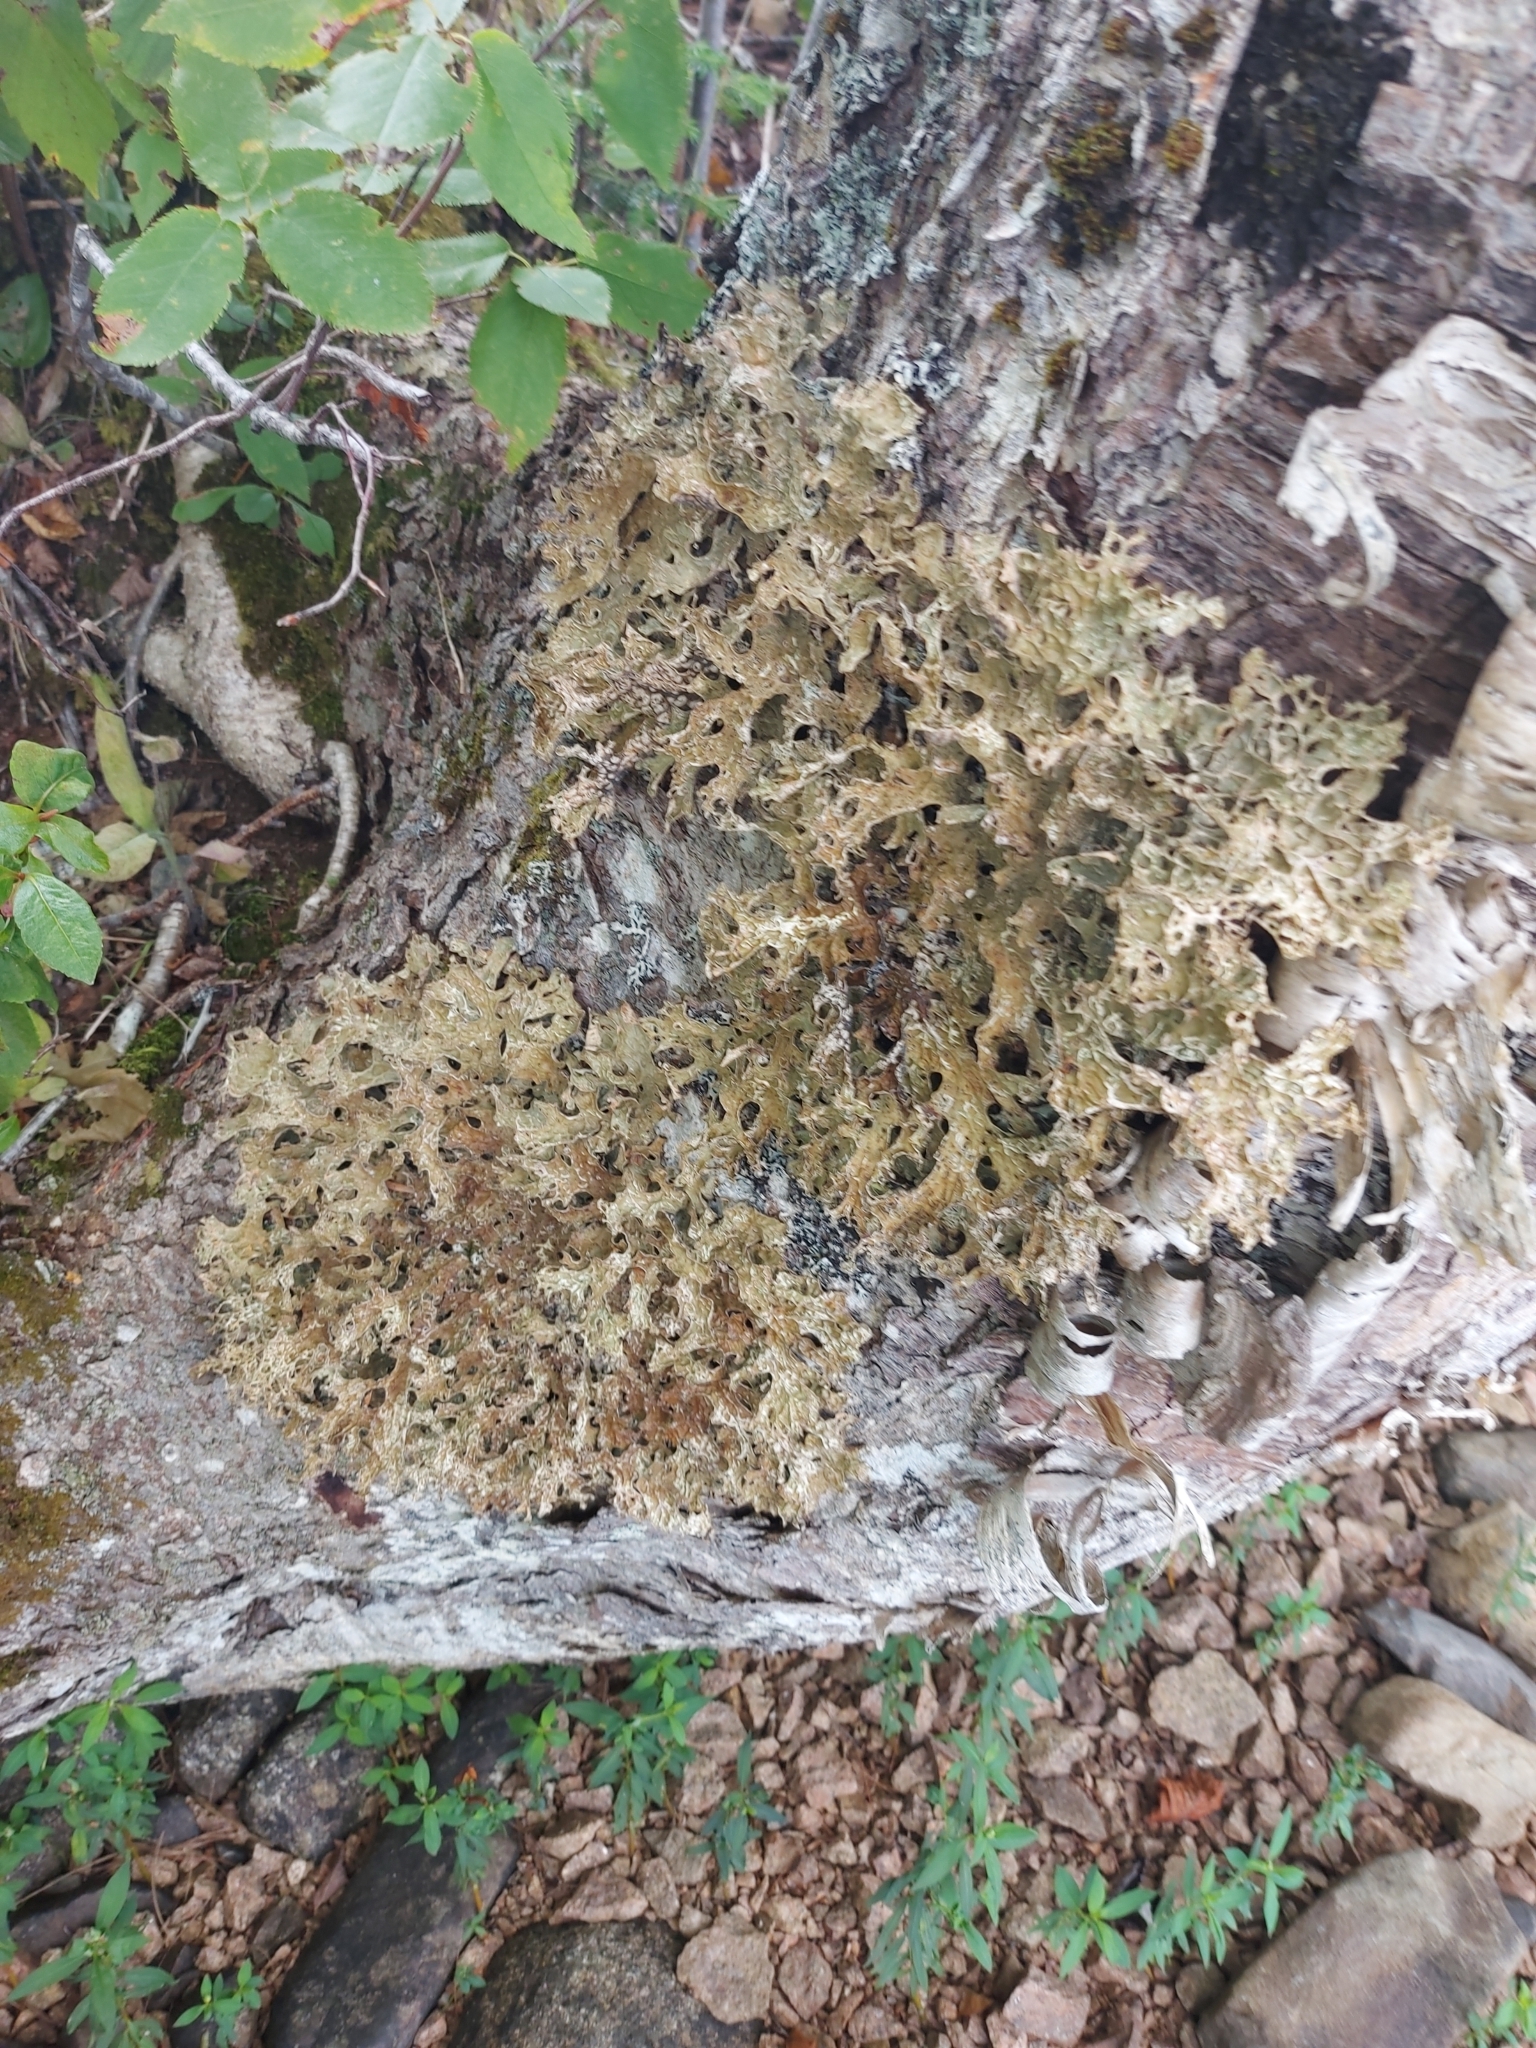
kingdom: Fungi
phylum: Ascomycota
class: Lecanoromycetes
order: Peltigerales
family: Lobariaceae
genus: Lobaria
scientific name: Lobaria pulmonaria
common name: Lungwort
